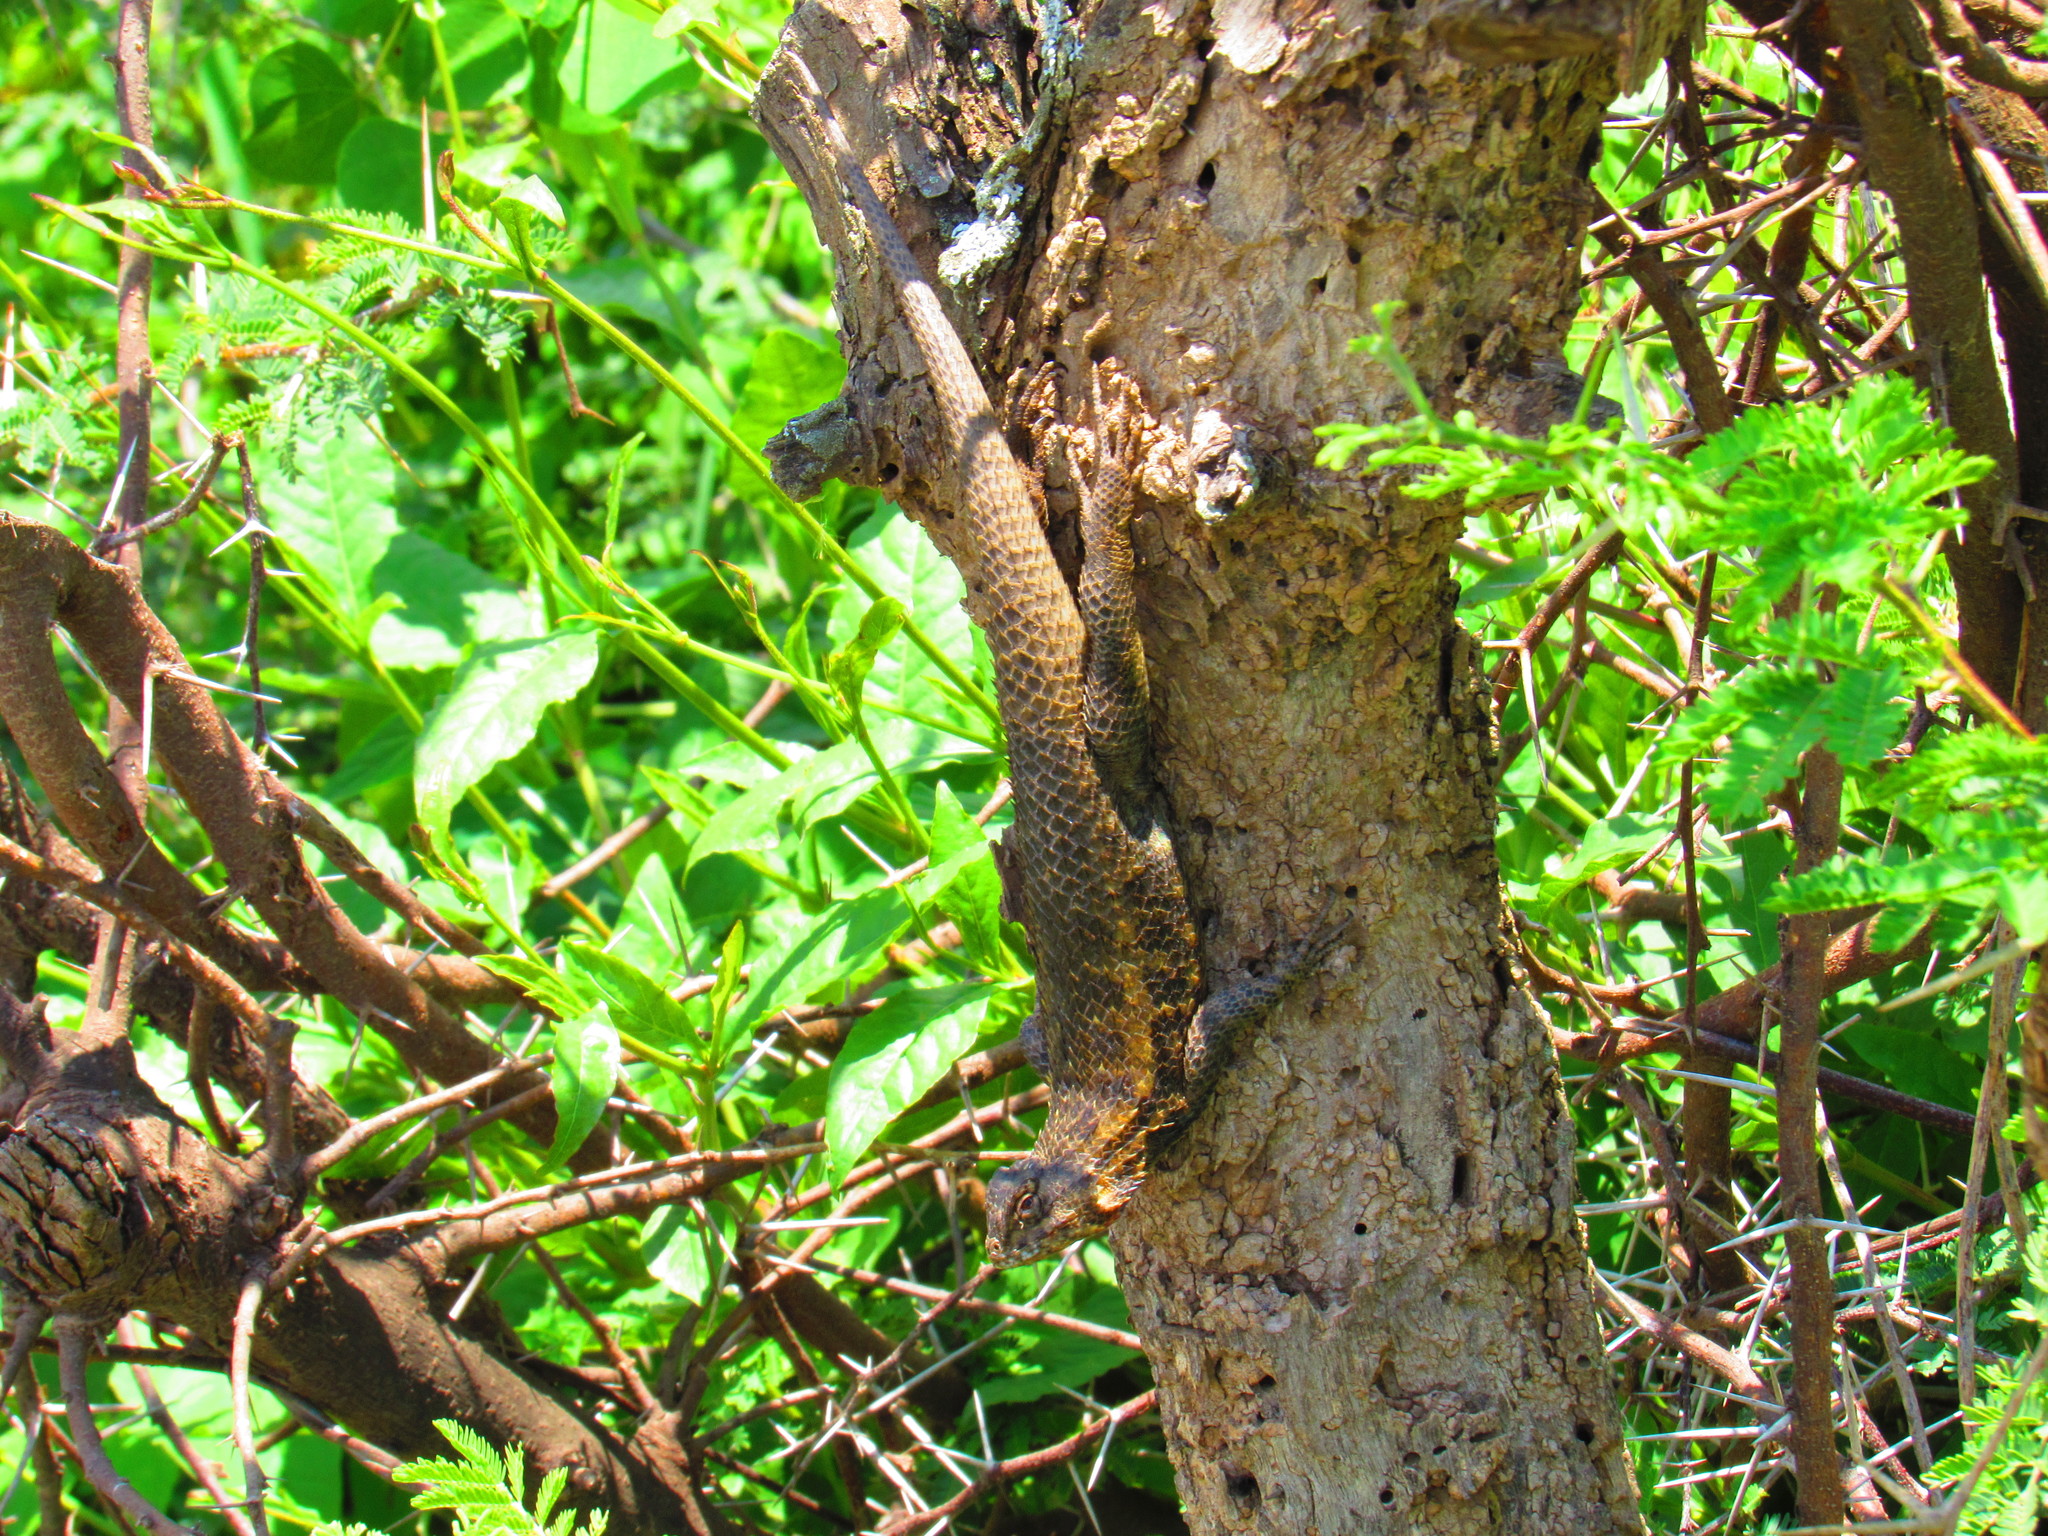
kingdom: Animalia
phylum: Chordata
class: Squamata
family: Phrynosomatidae
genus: Sceloporus
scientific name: Sceloporus spinosus
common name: Blue-spotted spiny lizard [caeruleopunctatus]
